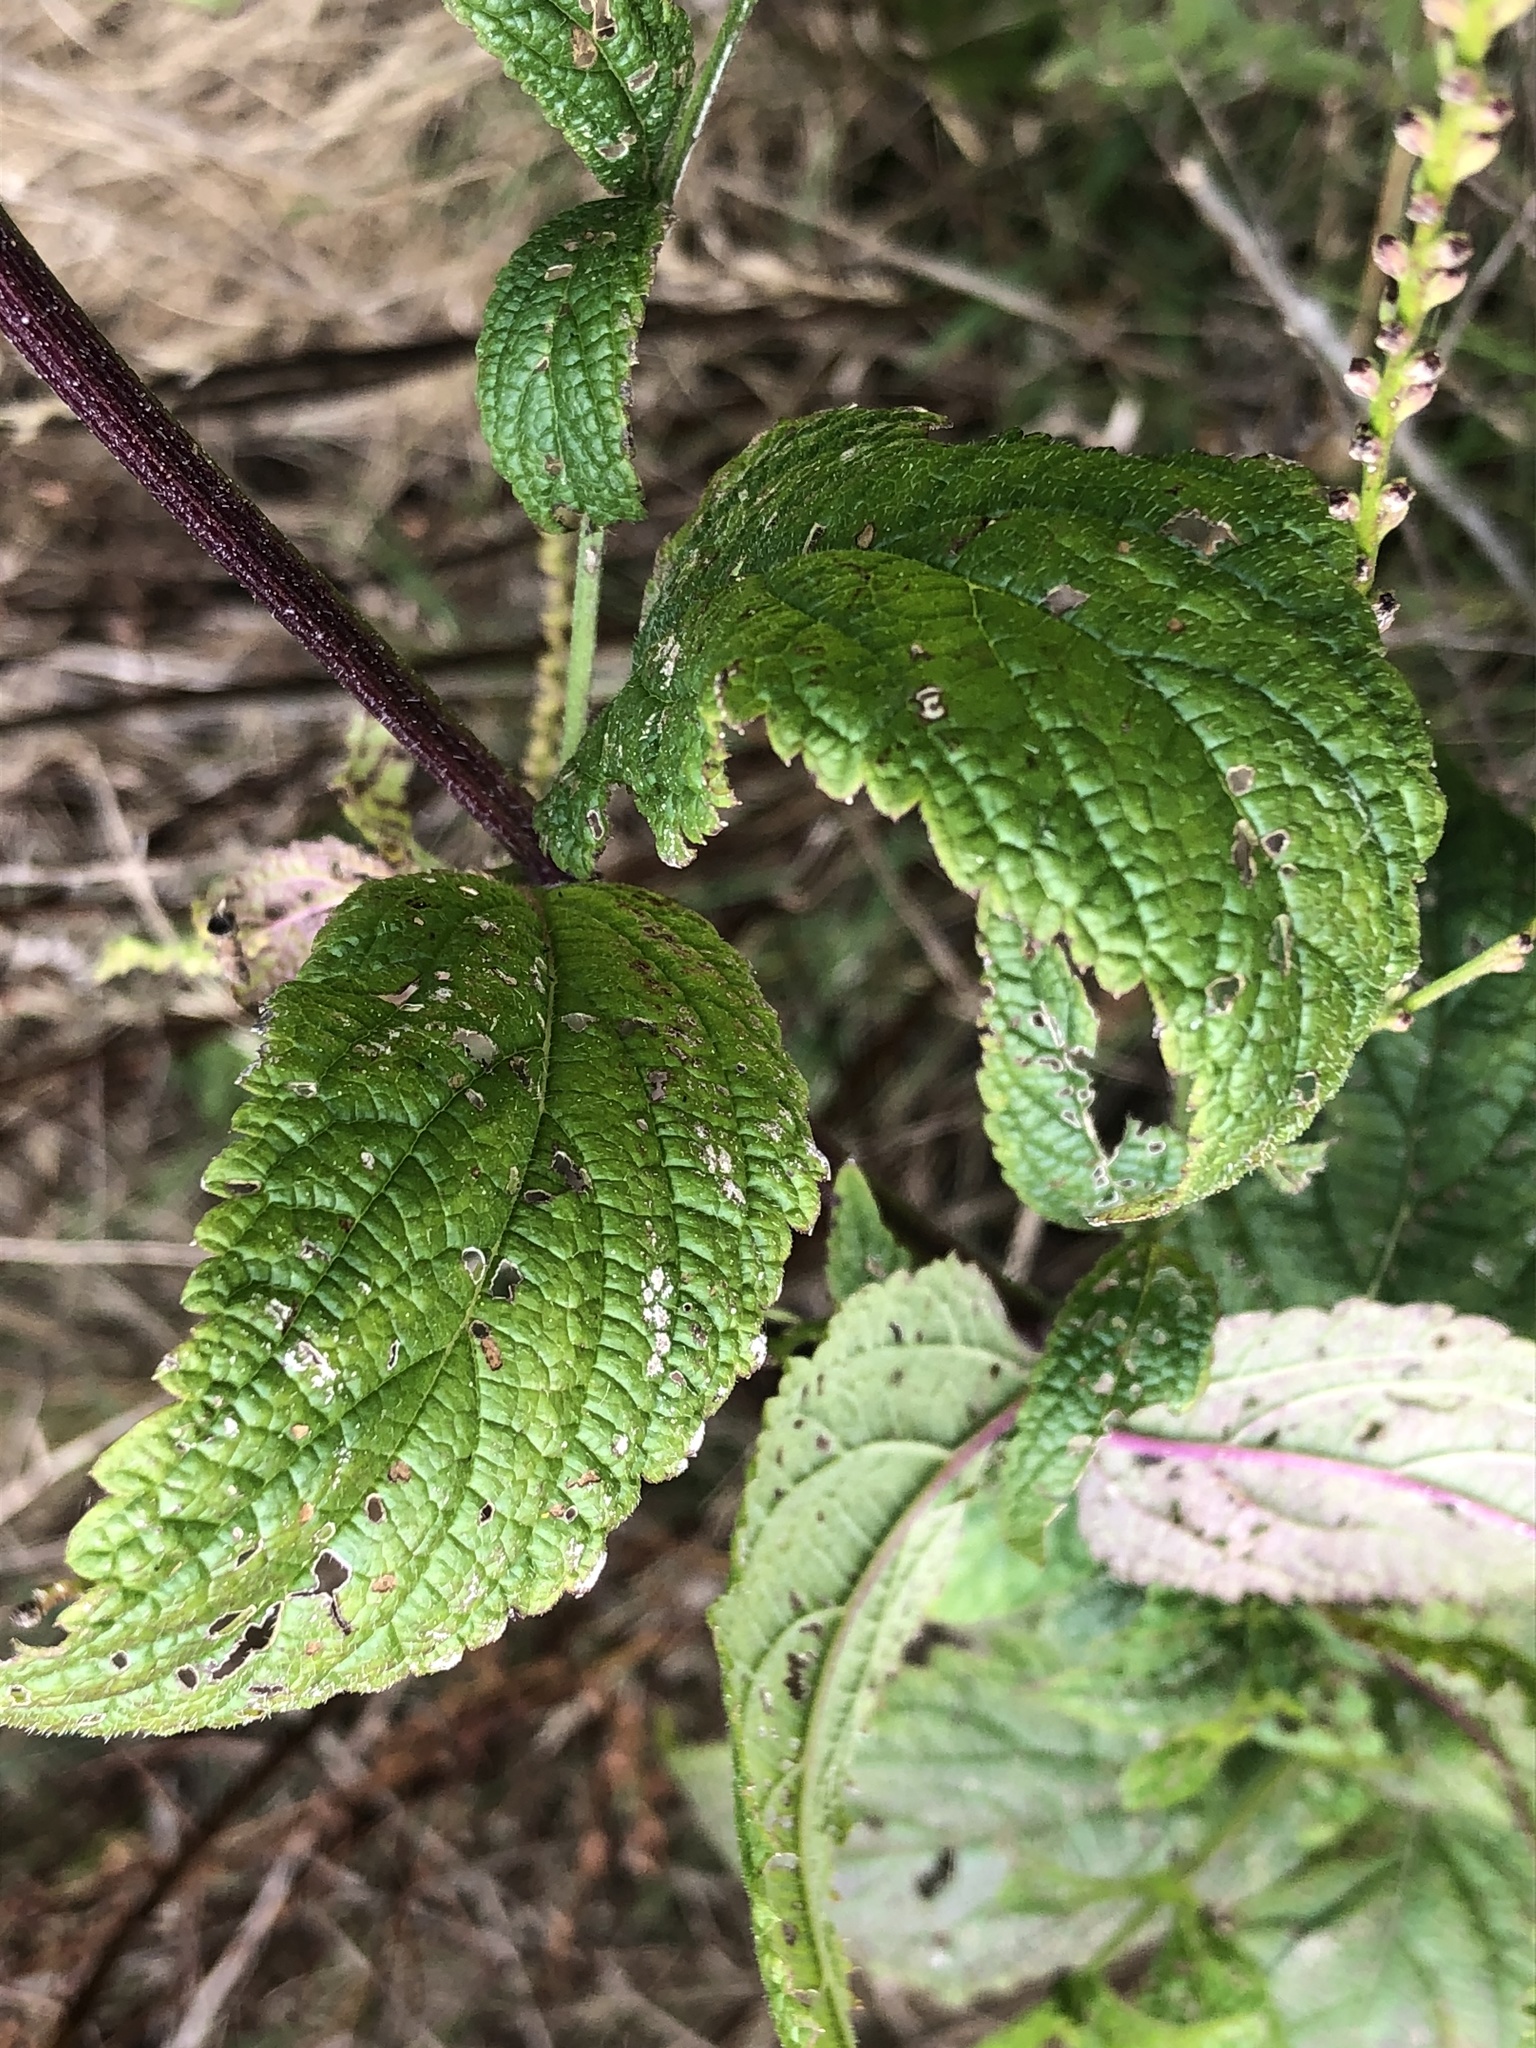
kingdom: Plantae
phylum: Tracheophyta
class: Magnoliopsida
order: Lamiales
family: Verbenaceae
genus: Verbena
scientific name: Verbena urticifolia
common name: Nettle-leaved vervain
